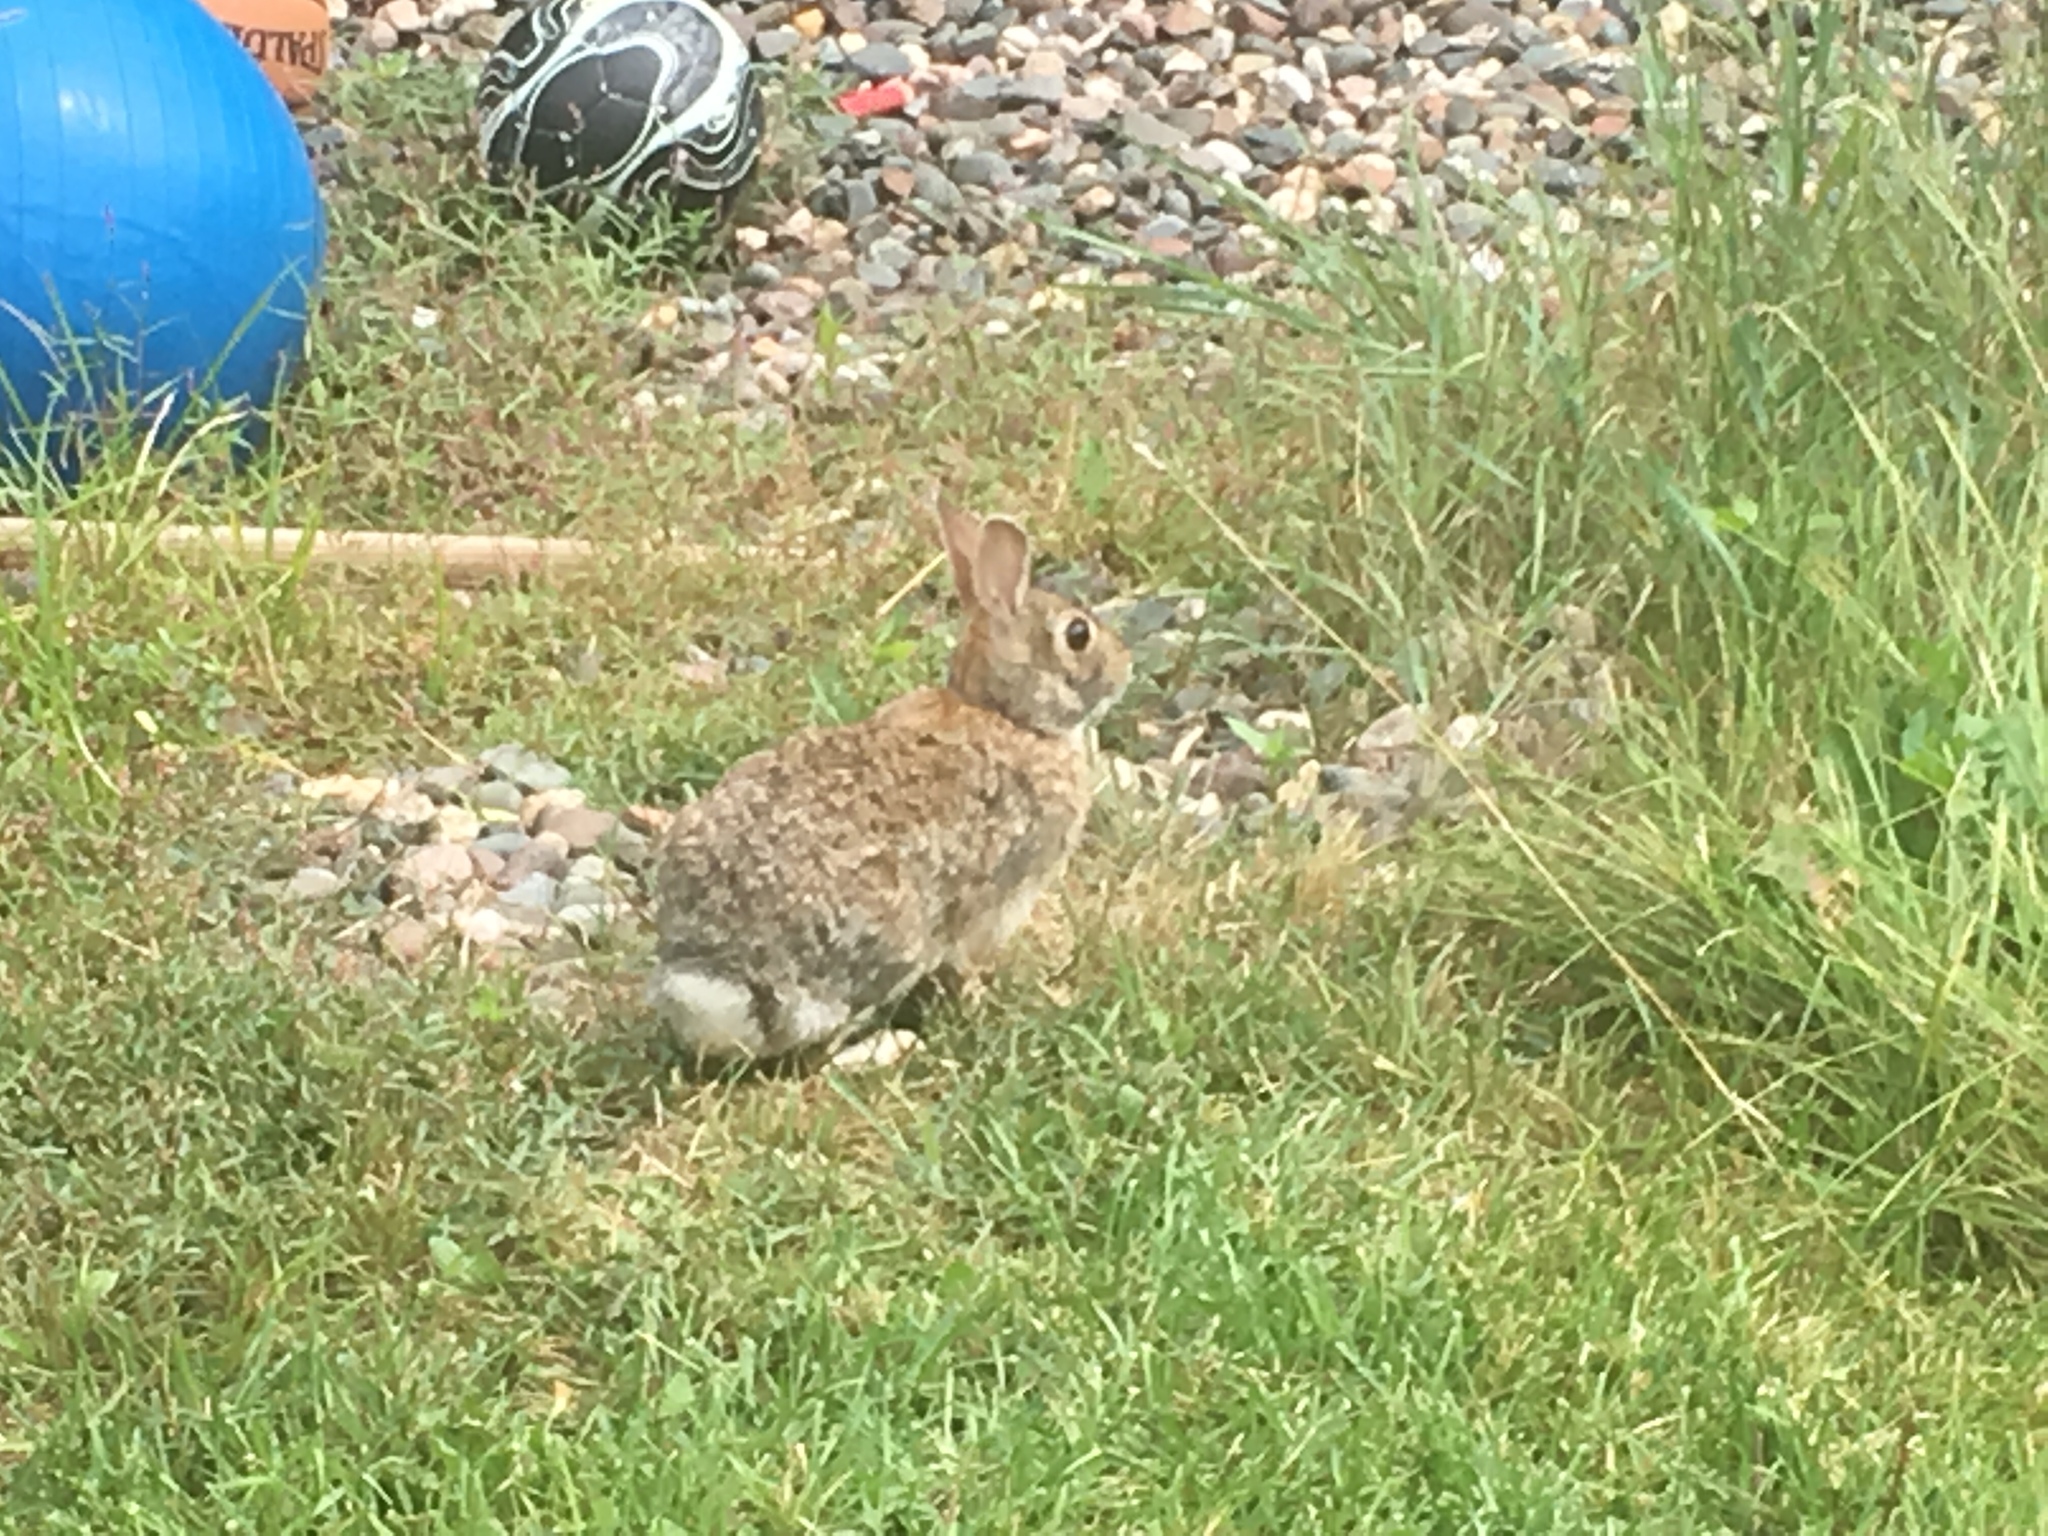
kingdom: Animalia
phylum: Chordata
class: Mammalia
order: Lagomorpha
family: Leporidae
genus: Sylvilagus
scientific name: Sylvilagus floridanus
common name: Eastern cottontail
